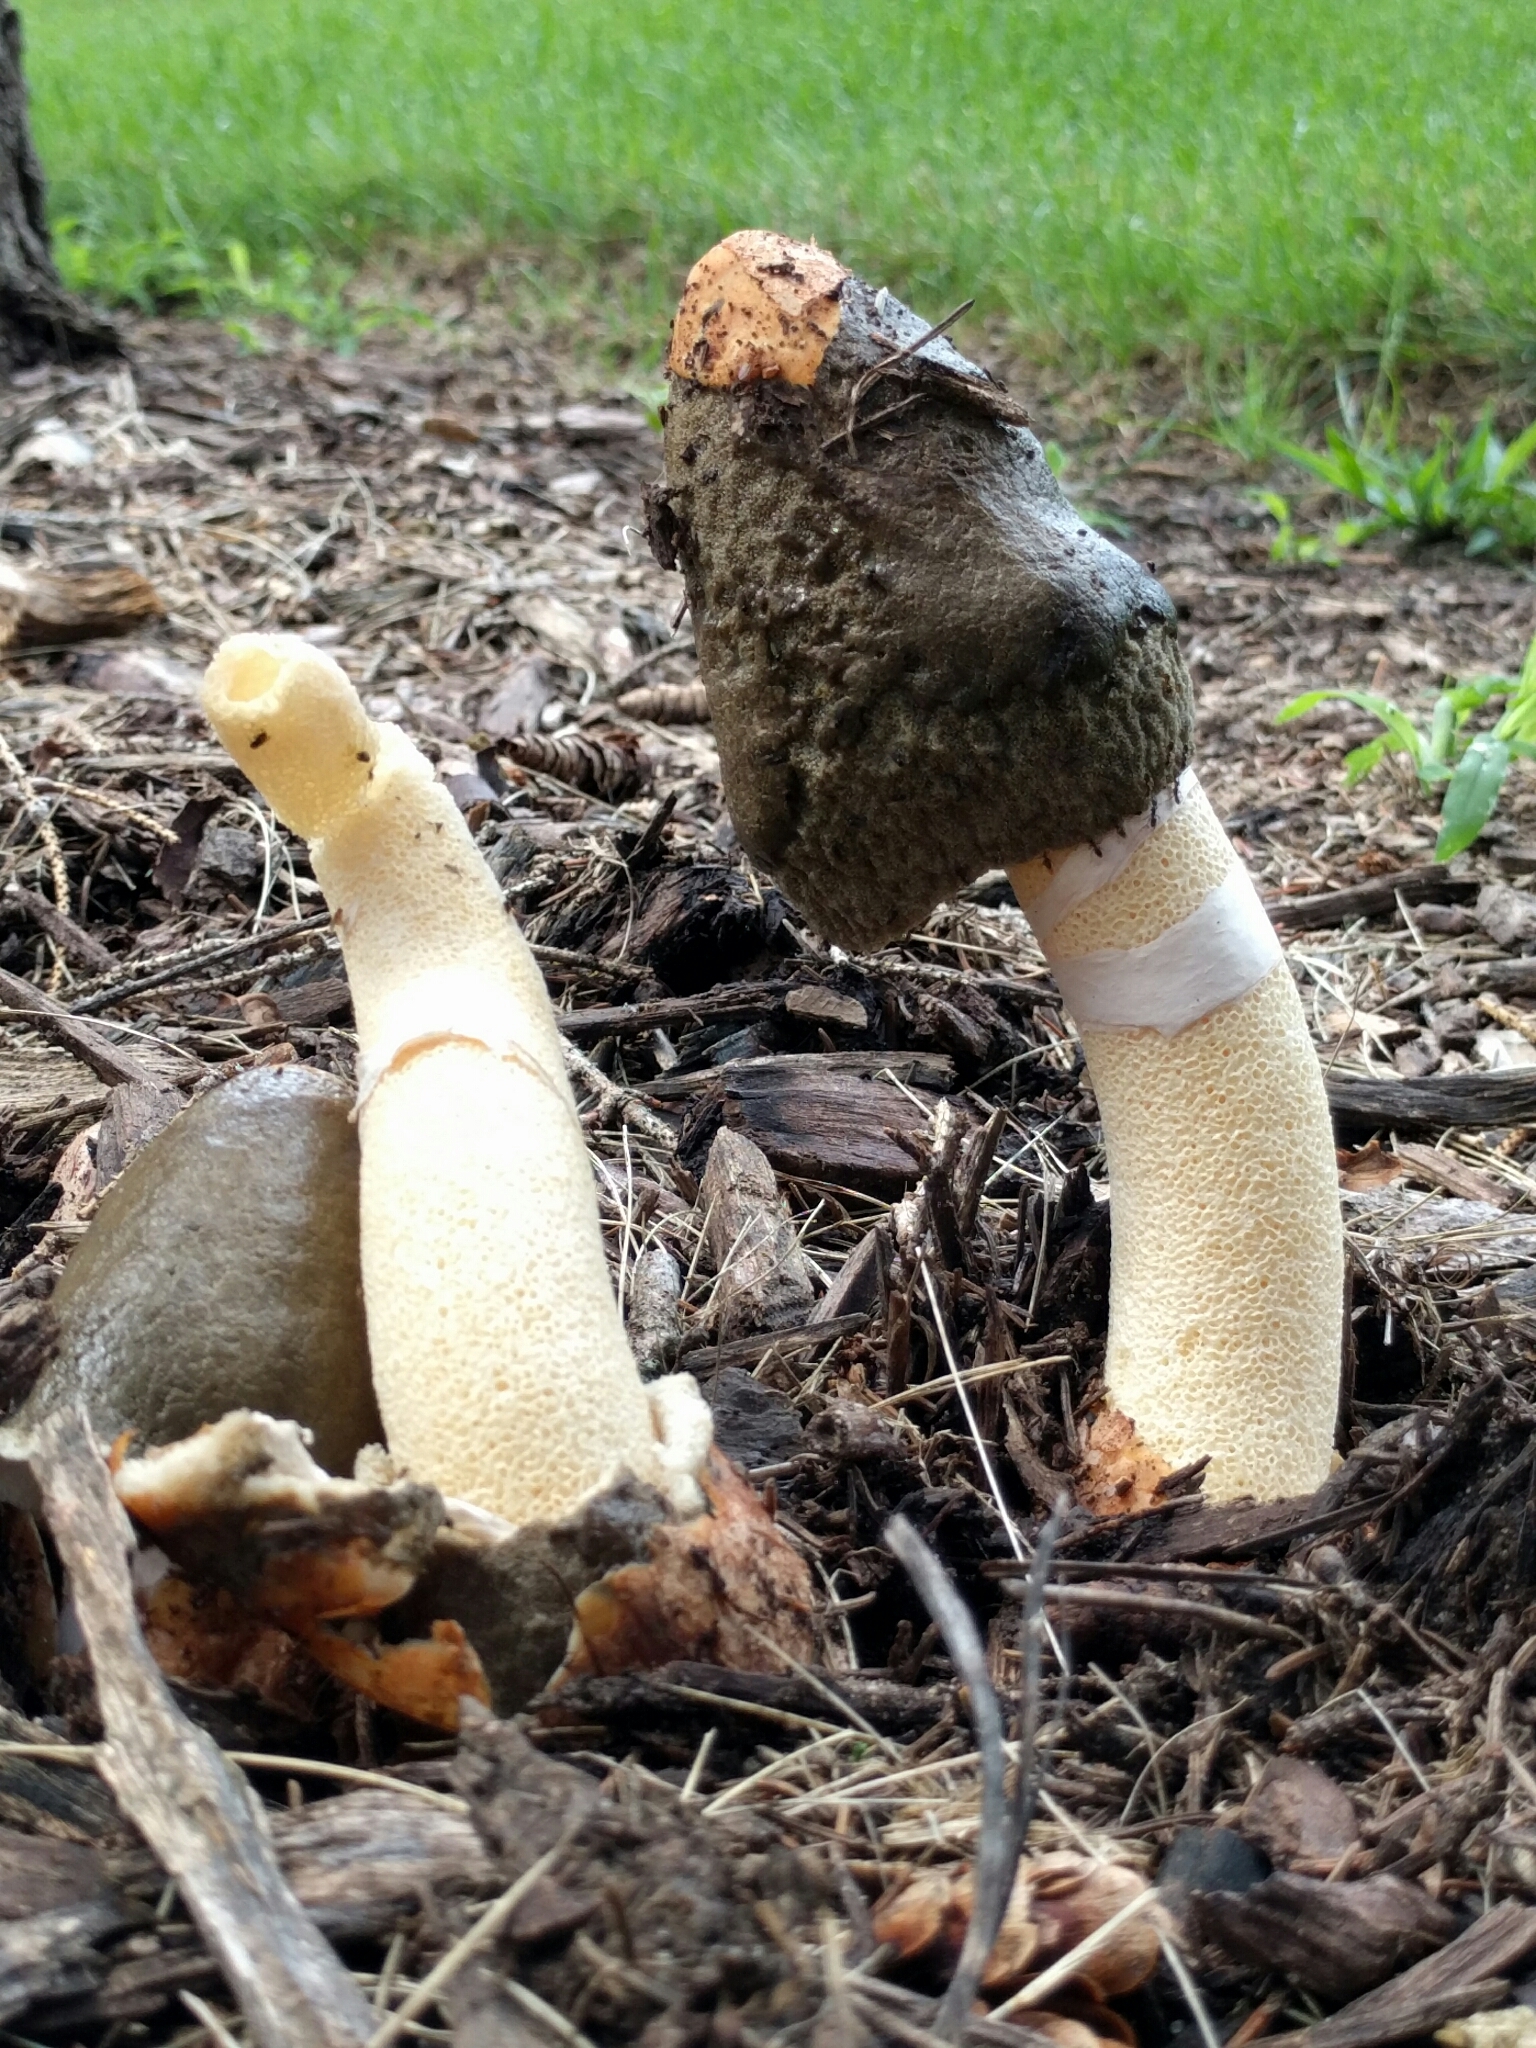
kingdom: Fungi
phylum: Basidiomycota
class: Agaricomycetes
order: Phallales
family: Phallaceae
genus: Phallus
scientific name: Phallus ravenelii
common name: Ravenel's stinkhorn
